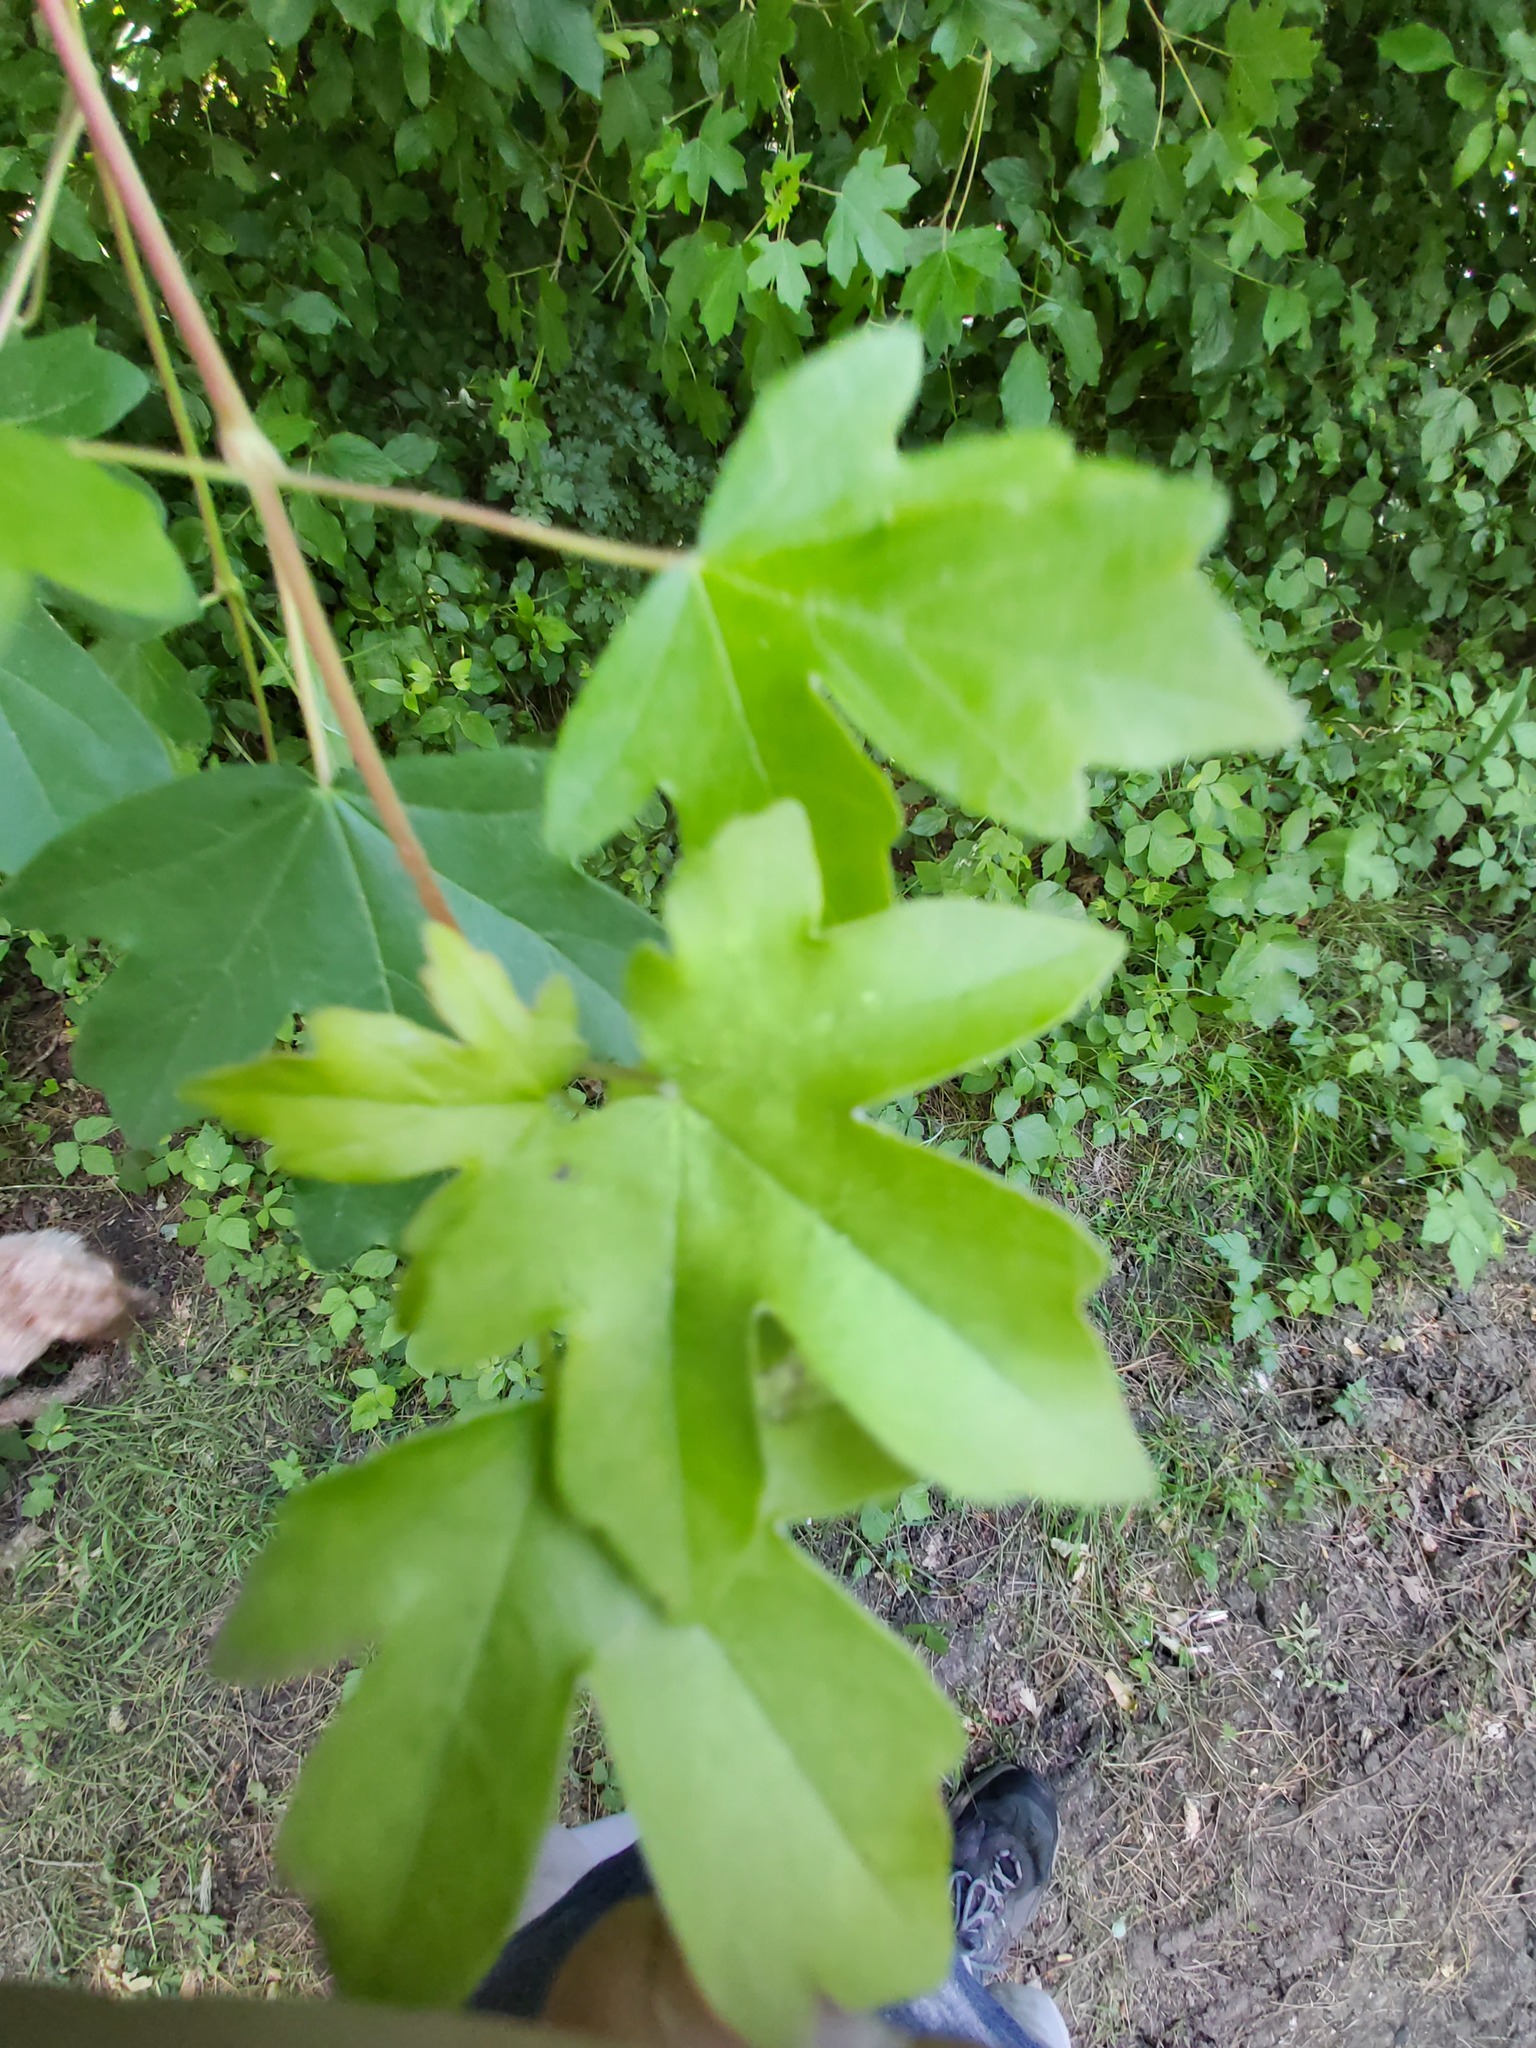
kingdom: Plantae
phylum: Tracheophyta
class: Magnoliopsida
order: Sapindales
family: Sapindaceae
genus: Acer
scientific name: Acer campestre
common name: Field maple
